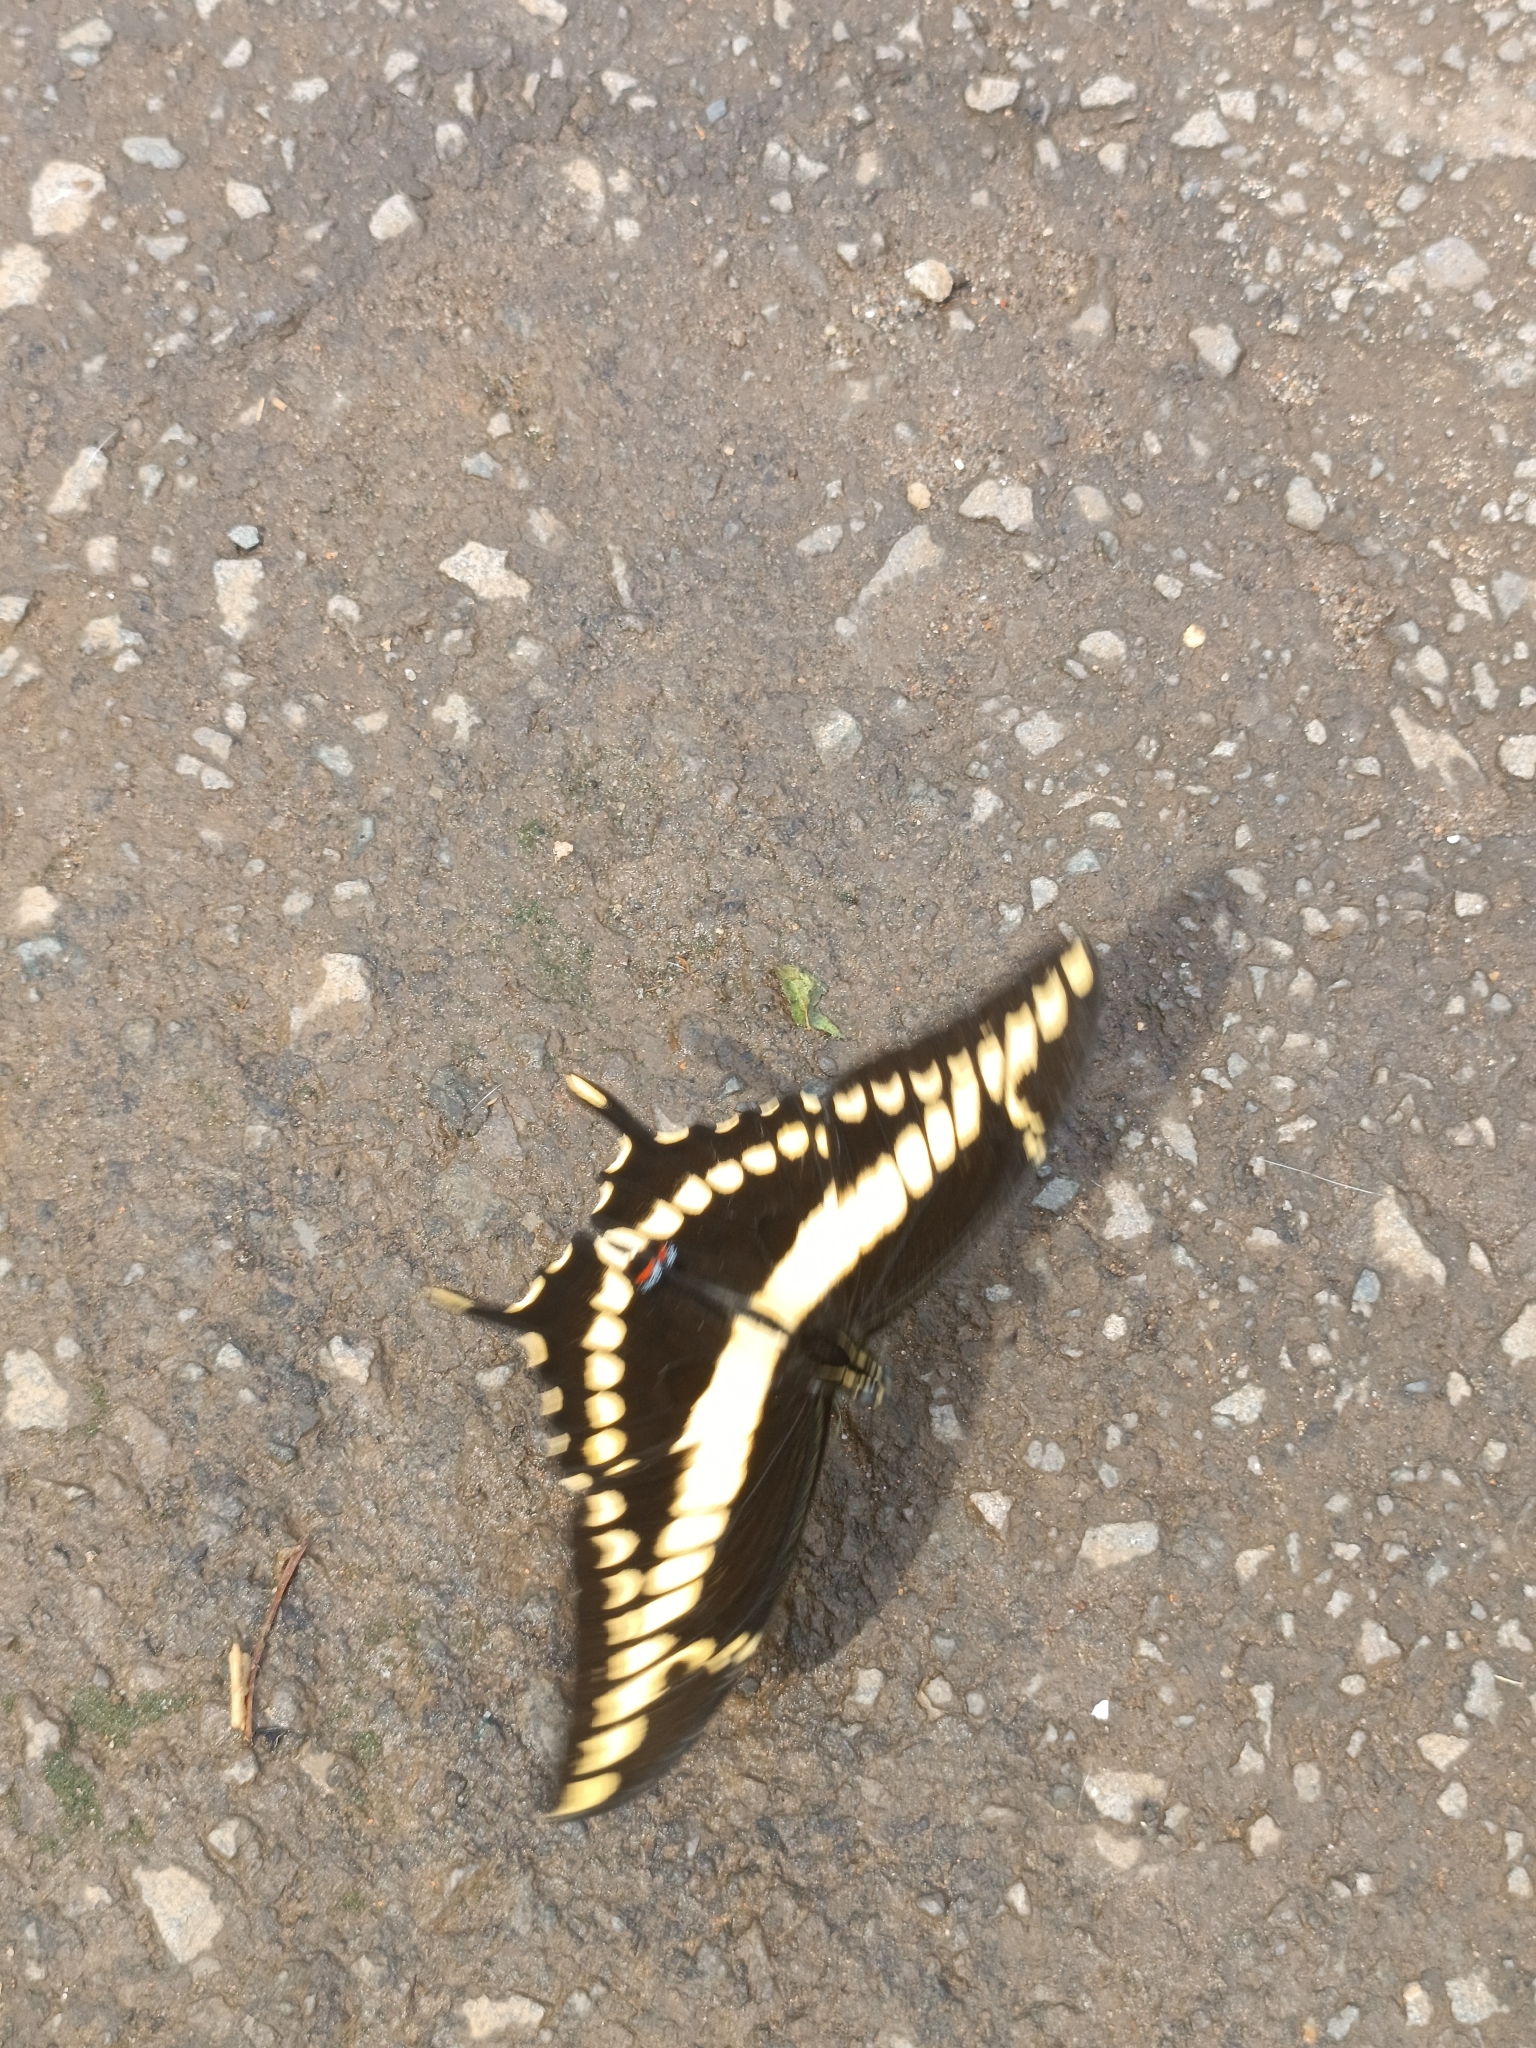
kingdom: Animalia
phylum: Arthropoda
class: Insecta
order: Lepidoptera
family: Papilionidae
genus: Papilio
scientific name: Papilio thoas
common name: King swallowtail
